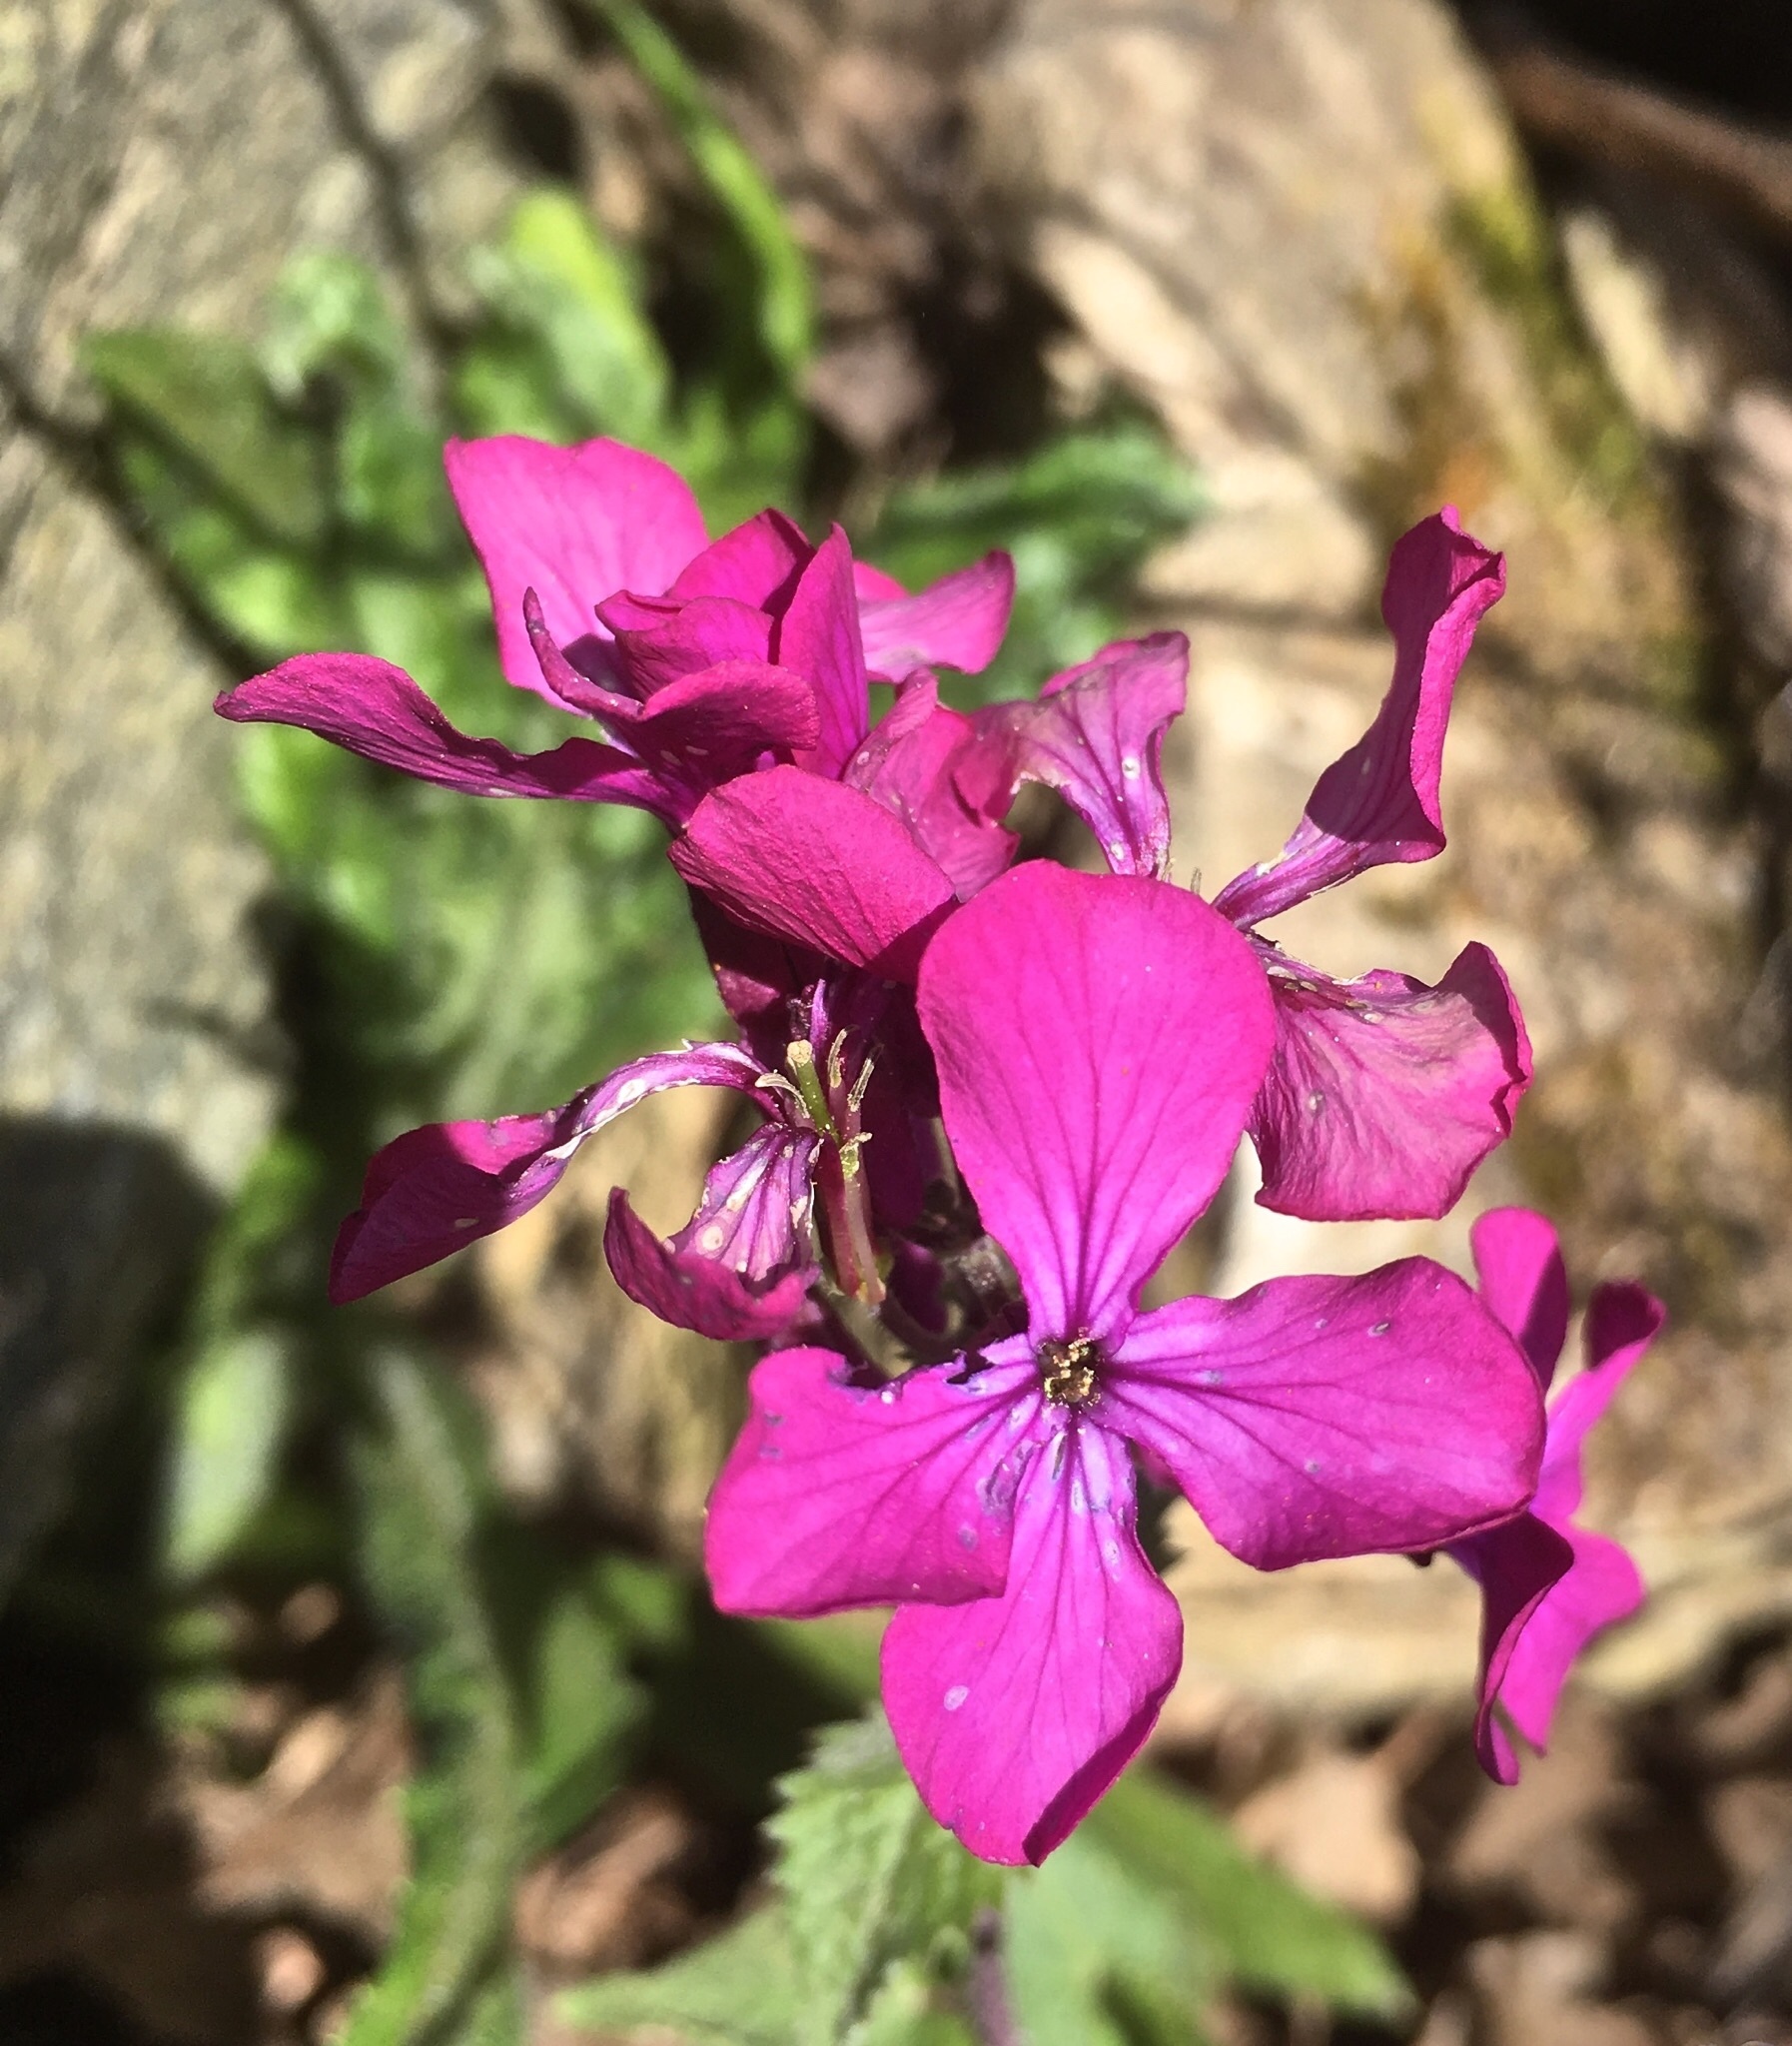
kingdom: Plantae
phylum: Tracheophyta
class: Magnoliopsida
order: Brassicales
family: Brassicaceae
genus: Lunaria
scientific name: Lunaria annua
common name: Honesty
